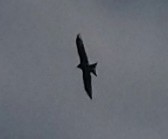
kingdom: Animalia
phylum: Chordata
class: Aves
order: Accipitriformes
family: Accipitridae
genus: Milvus
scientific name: Milvus migrans
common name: Black kite
